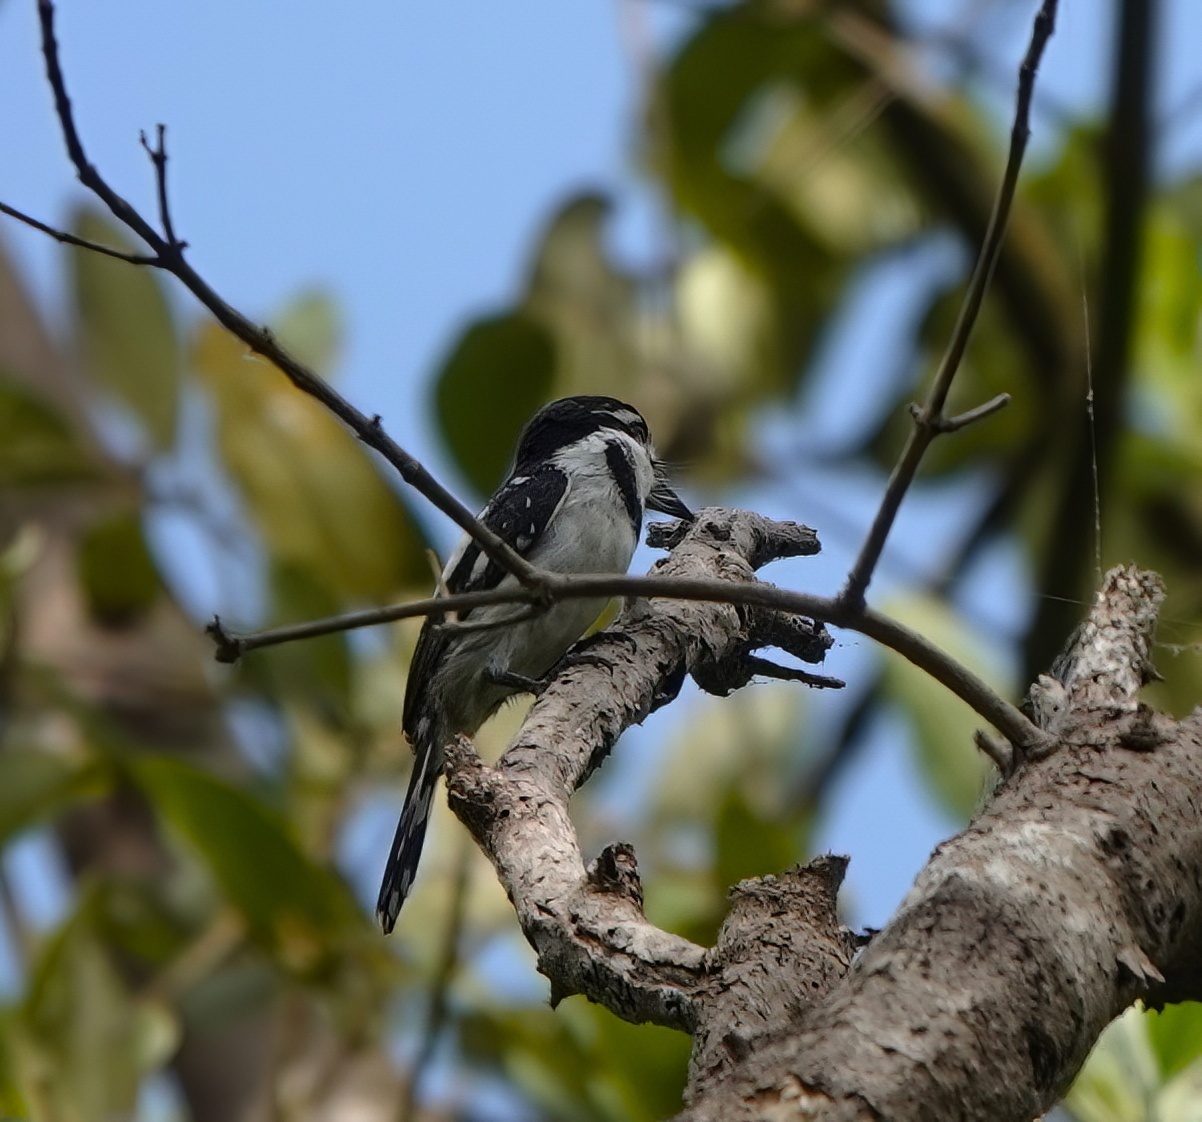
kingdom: Animalia
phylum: Chordata
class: Aves
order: Piciformes
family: Bucconidae
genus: Notharchus
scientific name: Notharchus tectus
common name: Pied puffbird
